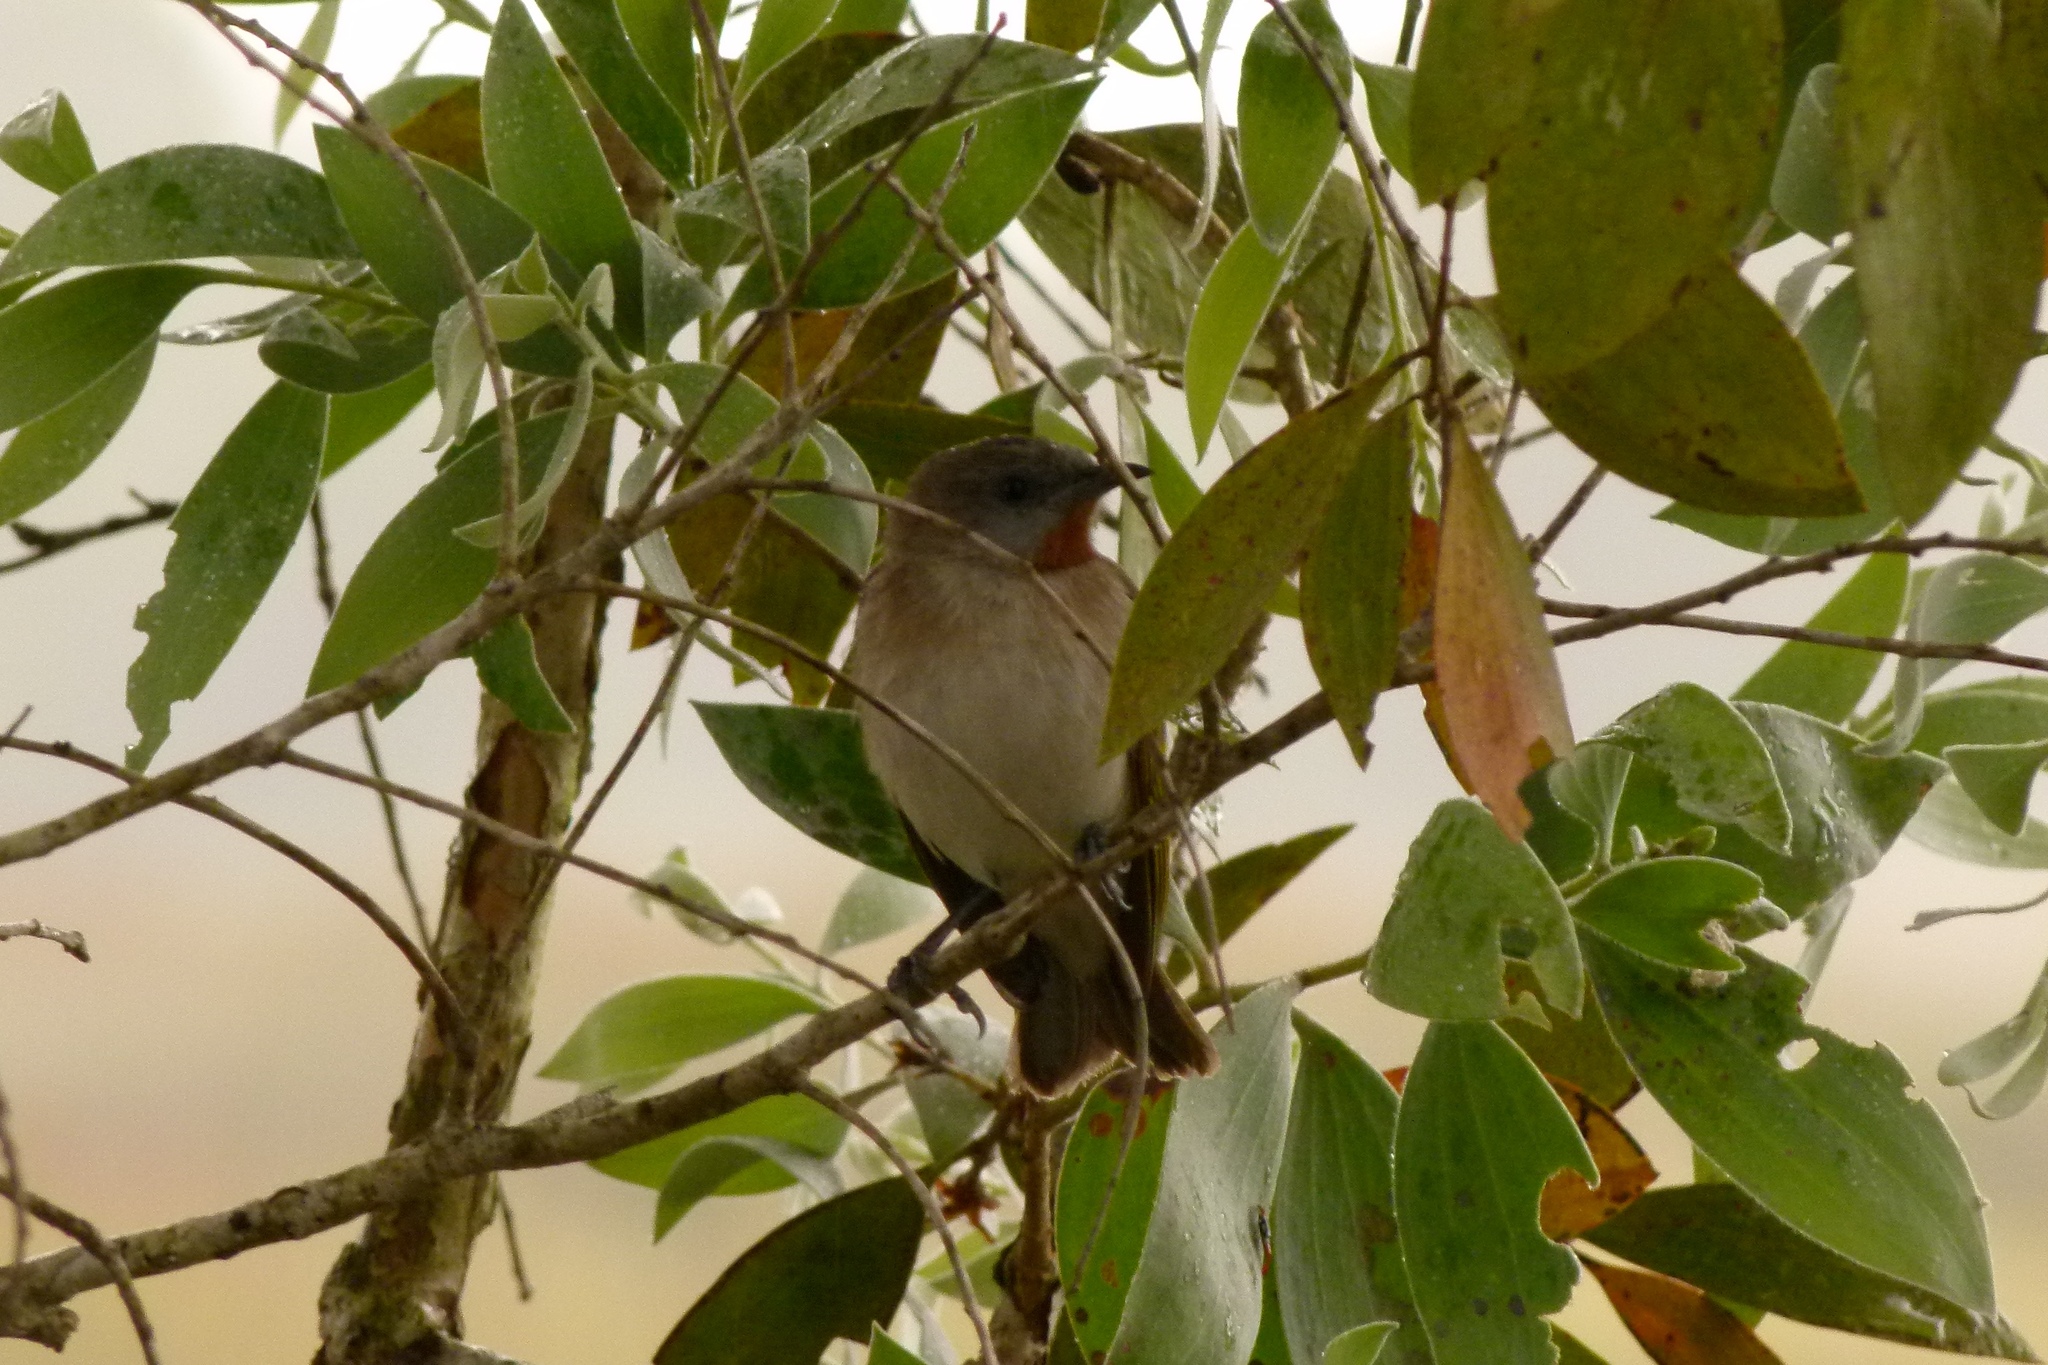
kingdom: Animalia
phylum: Chordata
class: Aves
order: Passeriformes
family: Meliphagidae
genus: Conopophila
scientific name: Conopophila rufogularis
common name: Rufous-throated honeyeater
